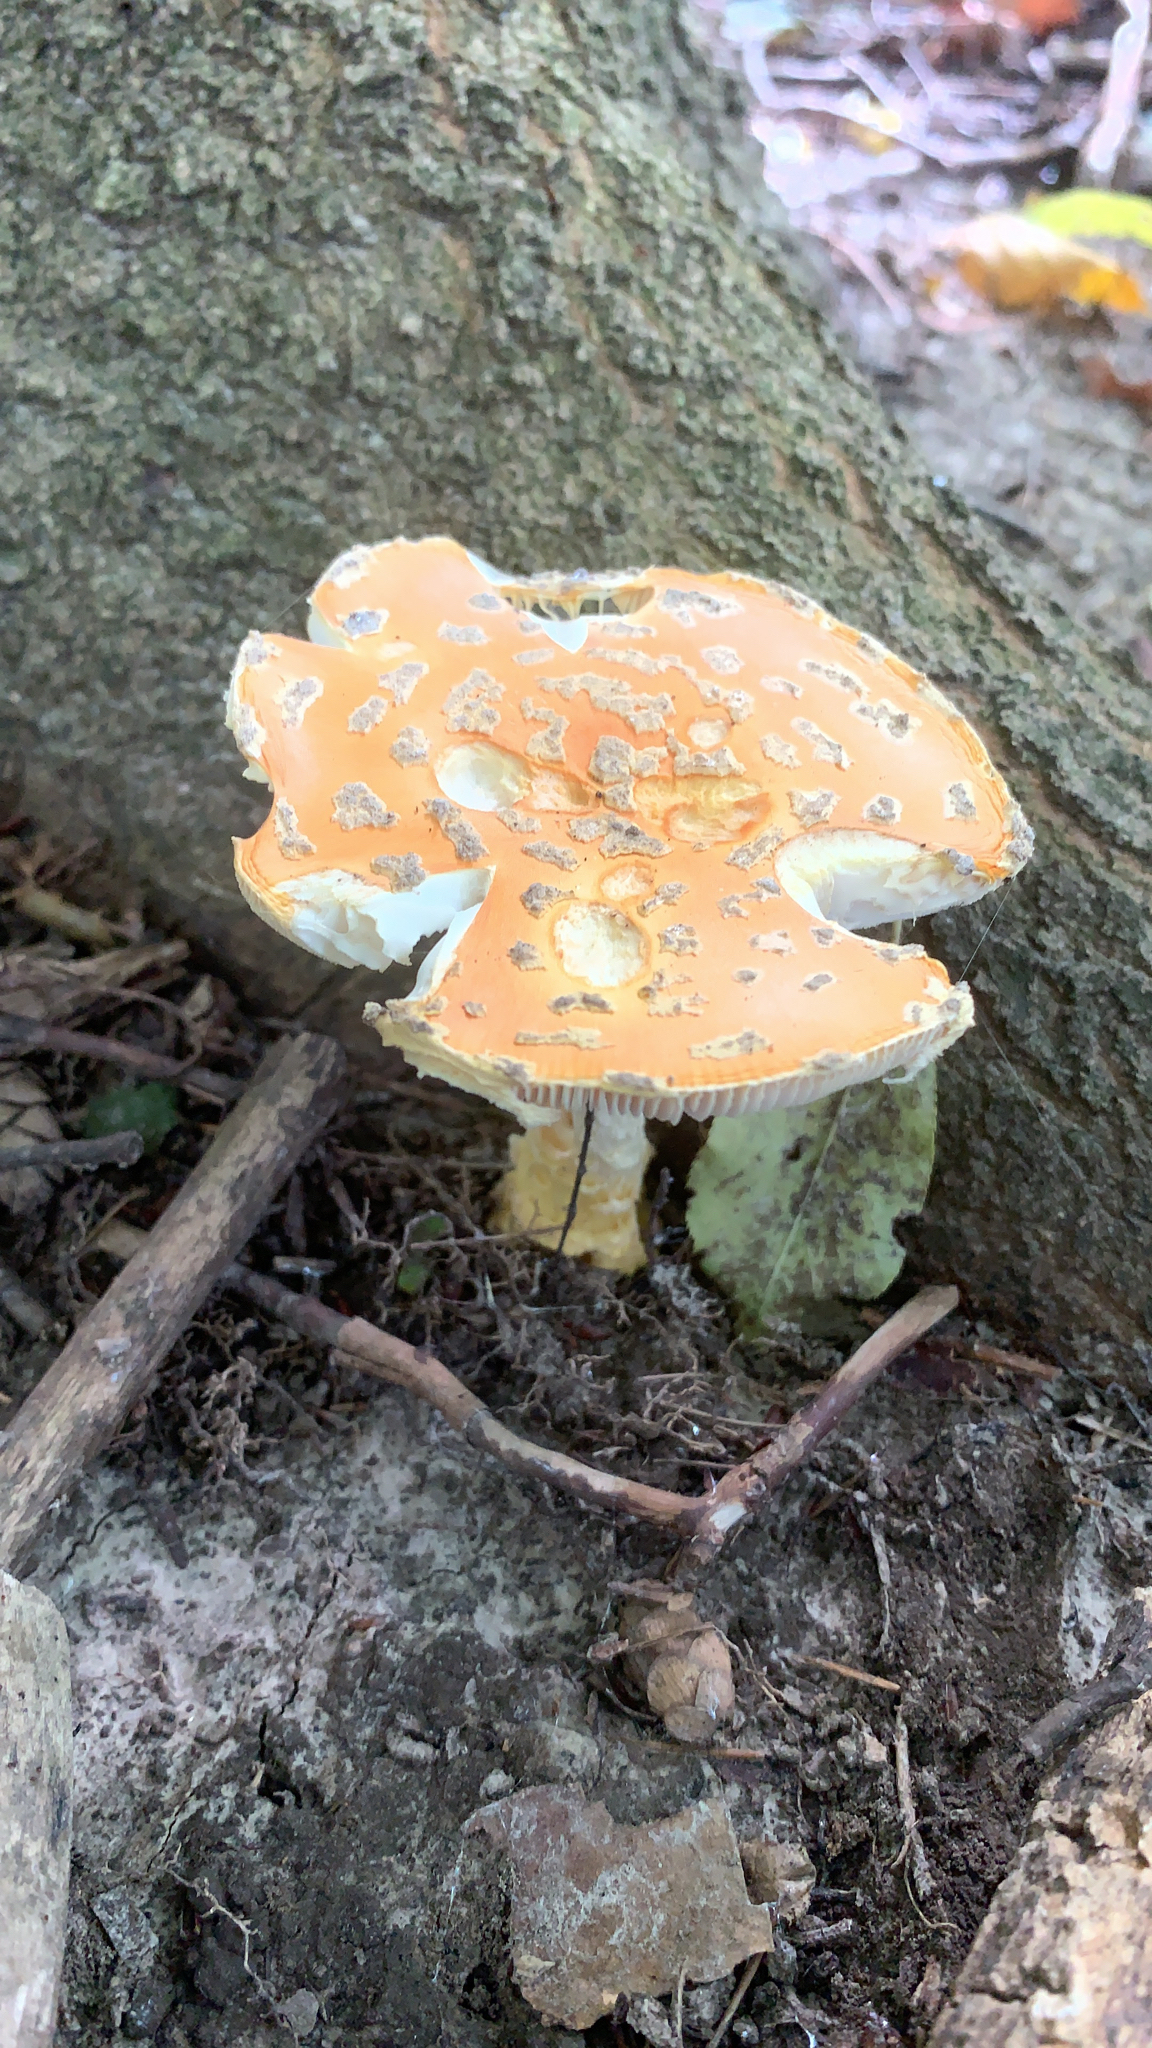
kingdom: Fungi
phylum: Basidiomycota
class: Agaricomycetes
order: Agaricales
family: Amanitaceae
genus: Amanita
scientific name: Amanita muscaria
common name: Fly agaric
